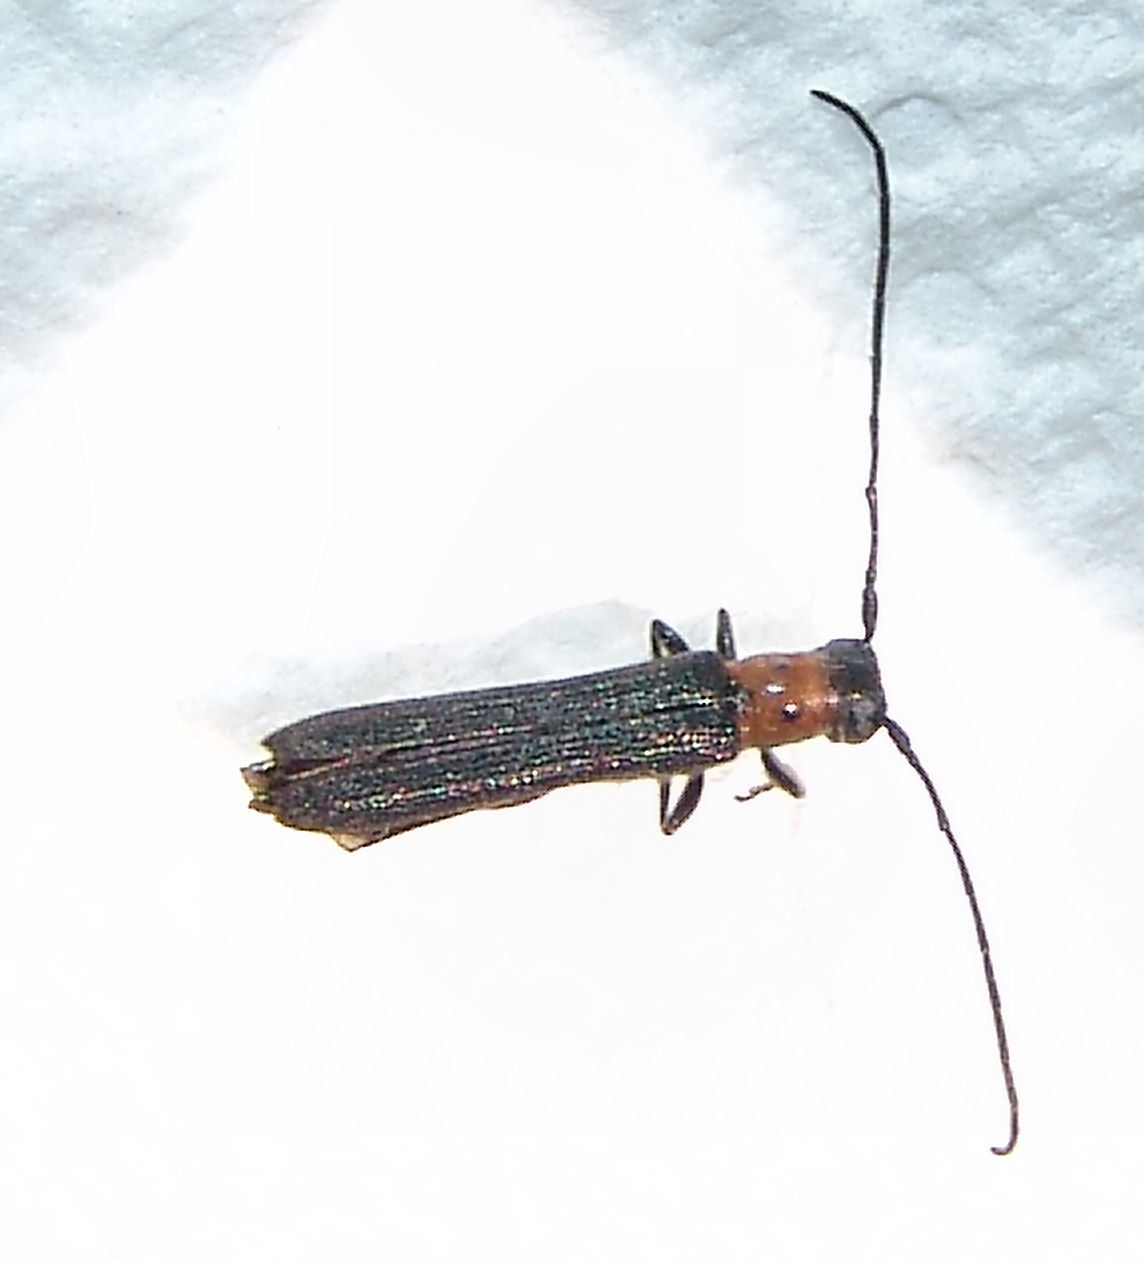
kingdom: Animalia
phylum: Arthropoda
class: Insecta
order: Coleoptera
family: Cerambycidae
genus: Oberea
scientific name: Oberea perspicillata
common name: Raspberry cane borer
